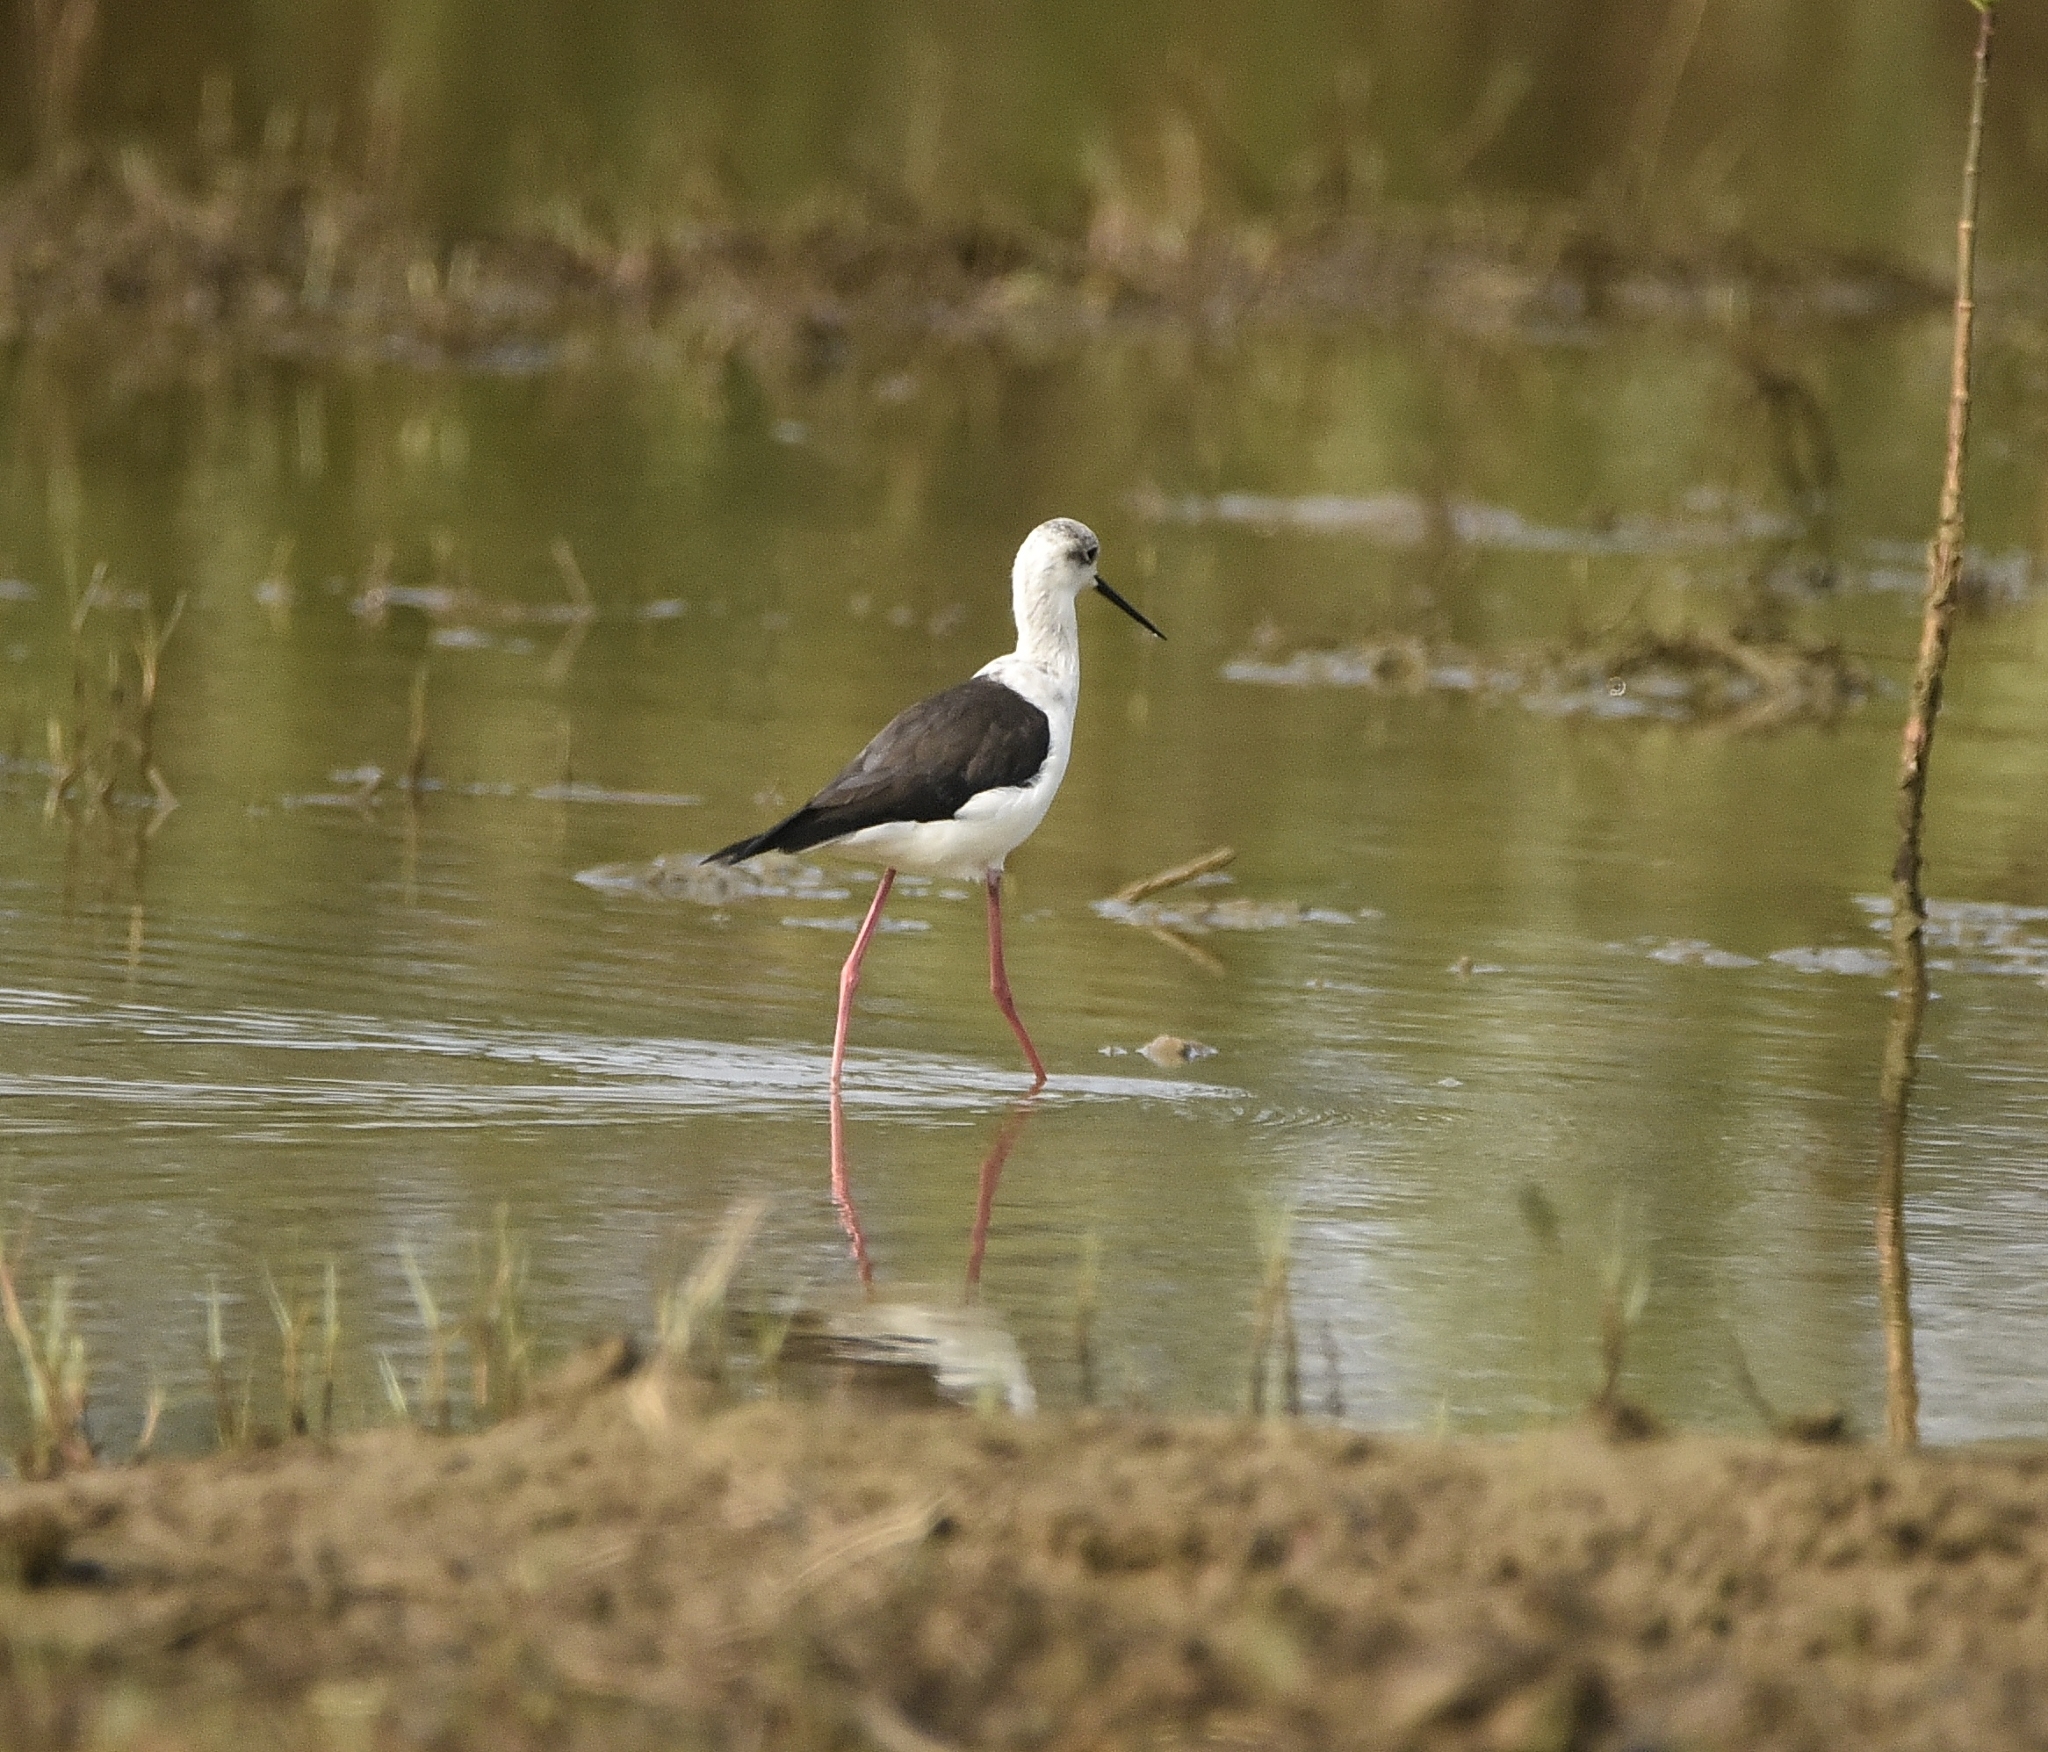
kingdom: Animalia
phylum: Chordata
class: Aves
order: Charadriiformes
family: Recurvirostridae
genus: Himantopus
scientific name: Himantopus himantopus
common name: Black-winged stilt
